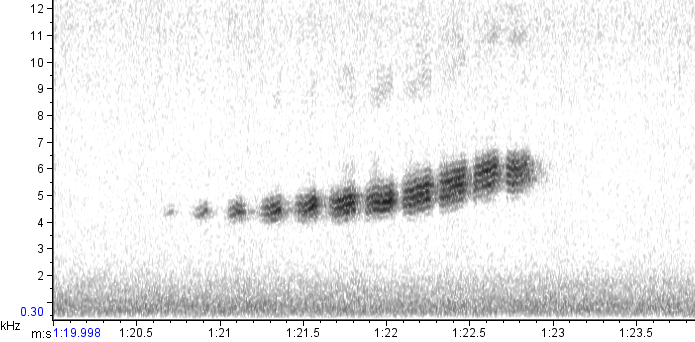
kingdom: Animalia
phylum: Chordata
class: Aves
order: Passeriformes
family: Parulidae
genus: Setophaga
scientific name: Setophaga discolor
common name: Prairie warbler
